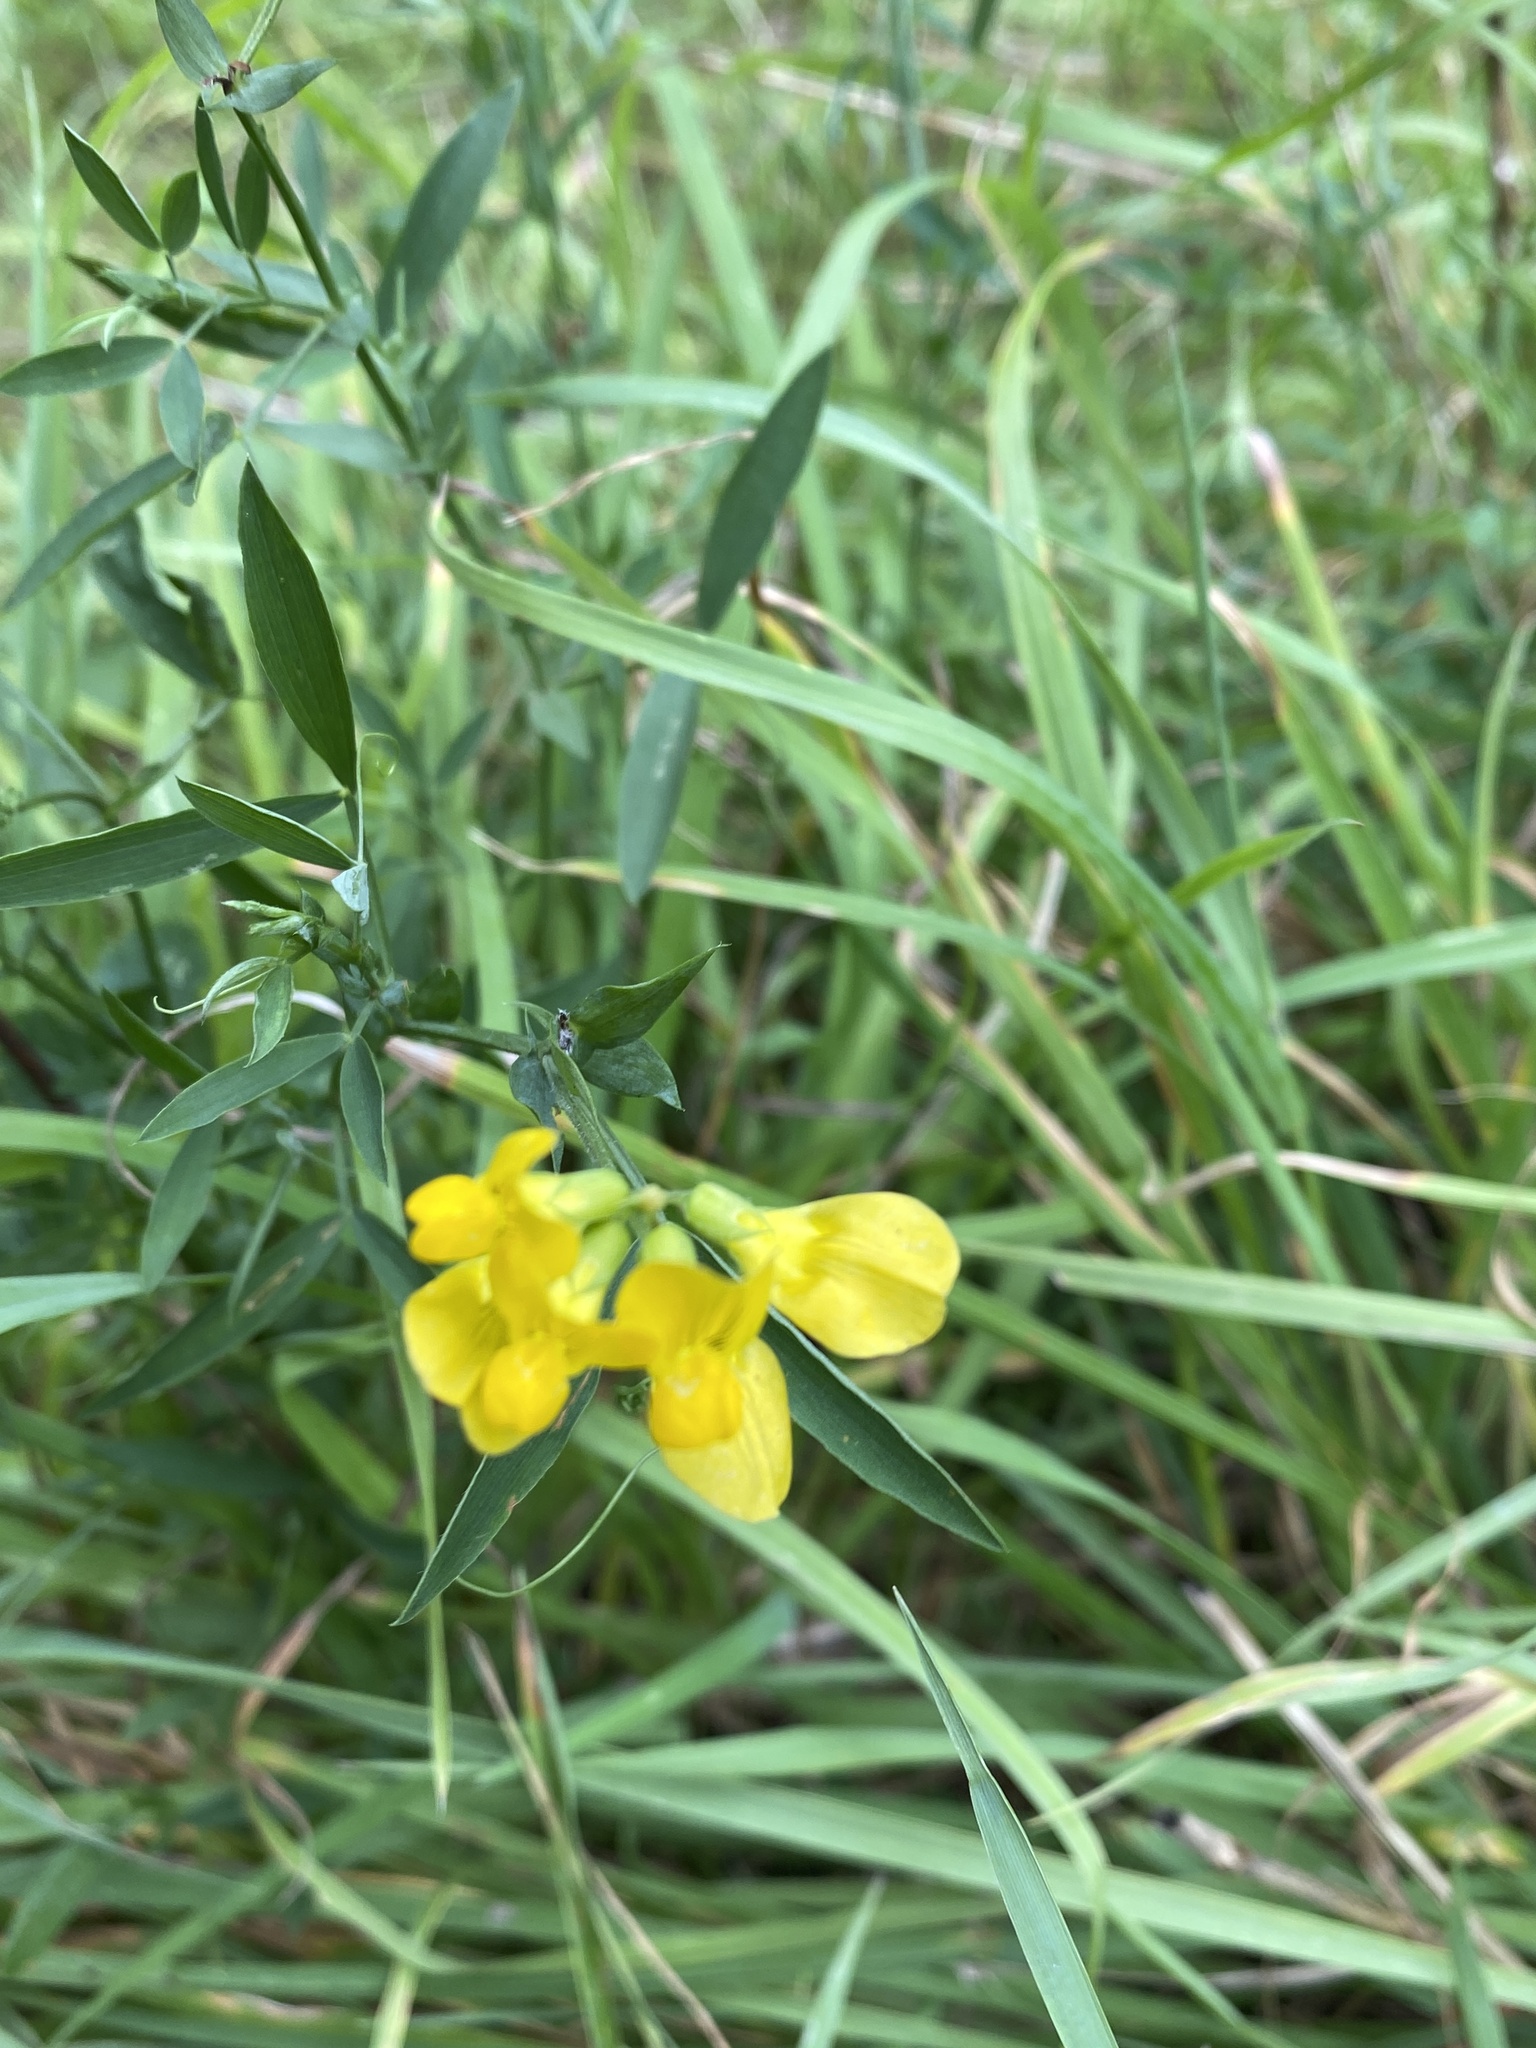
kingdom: Plantae
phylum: Tracheophyta
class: Magnoliopsida
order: Fabales
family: Fabaceae
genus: Lotus
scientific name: Lotus corniculatus
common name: Common bird's-foot-trefoil
